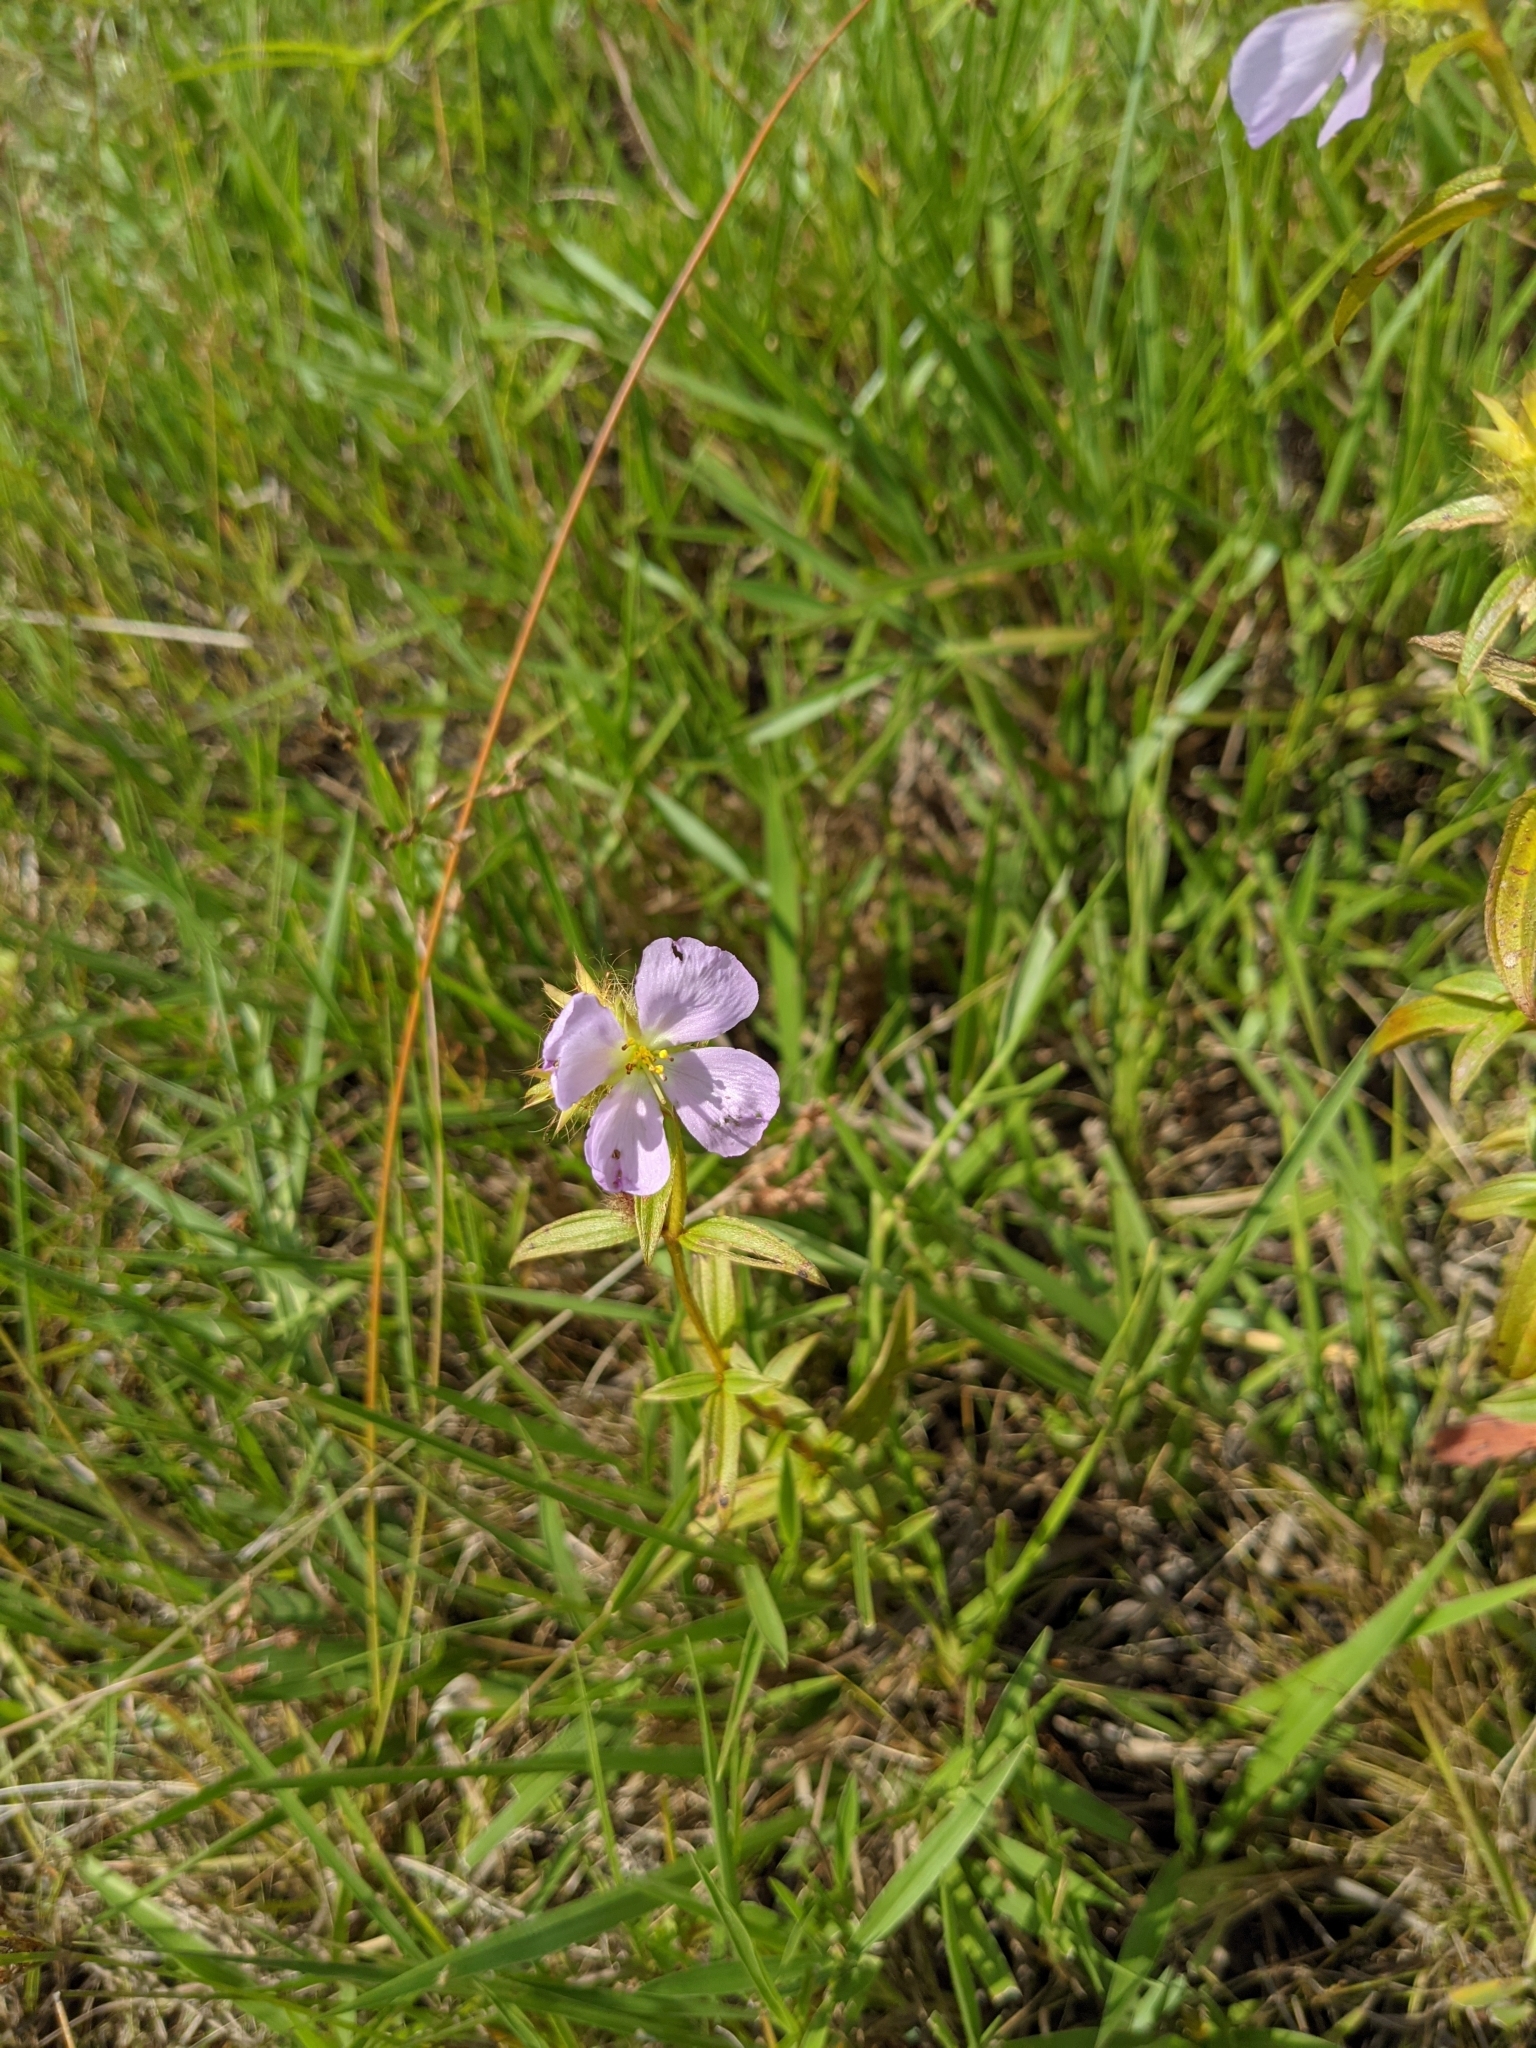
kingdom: Plantae
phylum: Tracheophyta
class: Magnoliopsida
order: Myrtales
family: Melastomataceae
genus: Pterolepis
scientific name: Pterolepis glomerata
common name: False meadowbeauty
